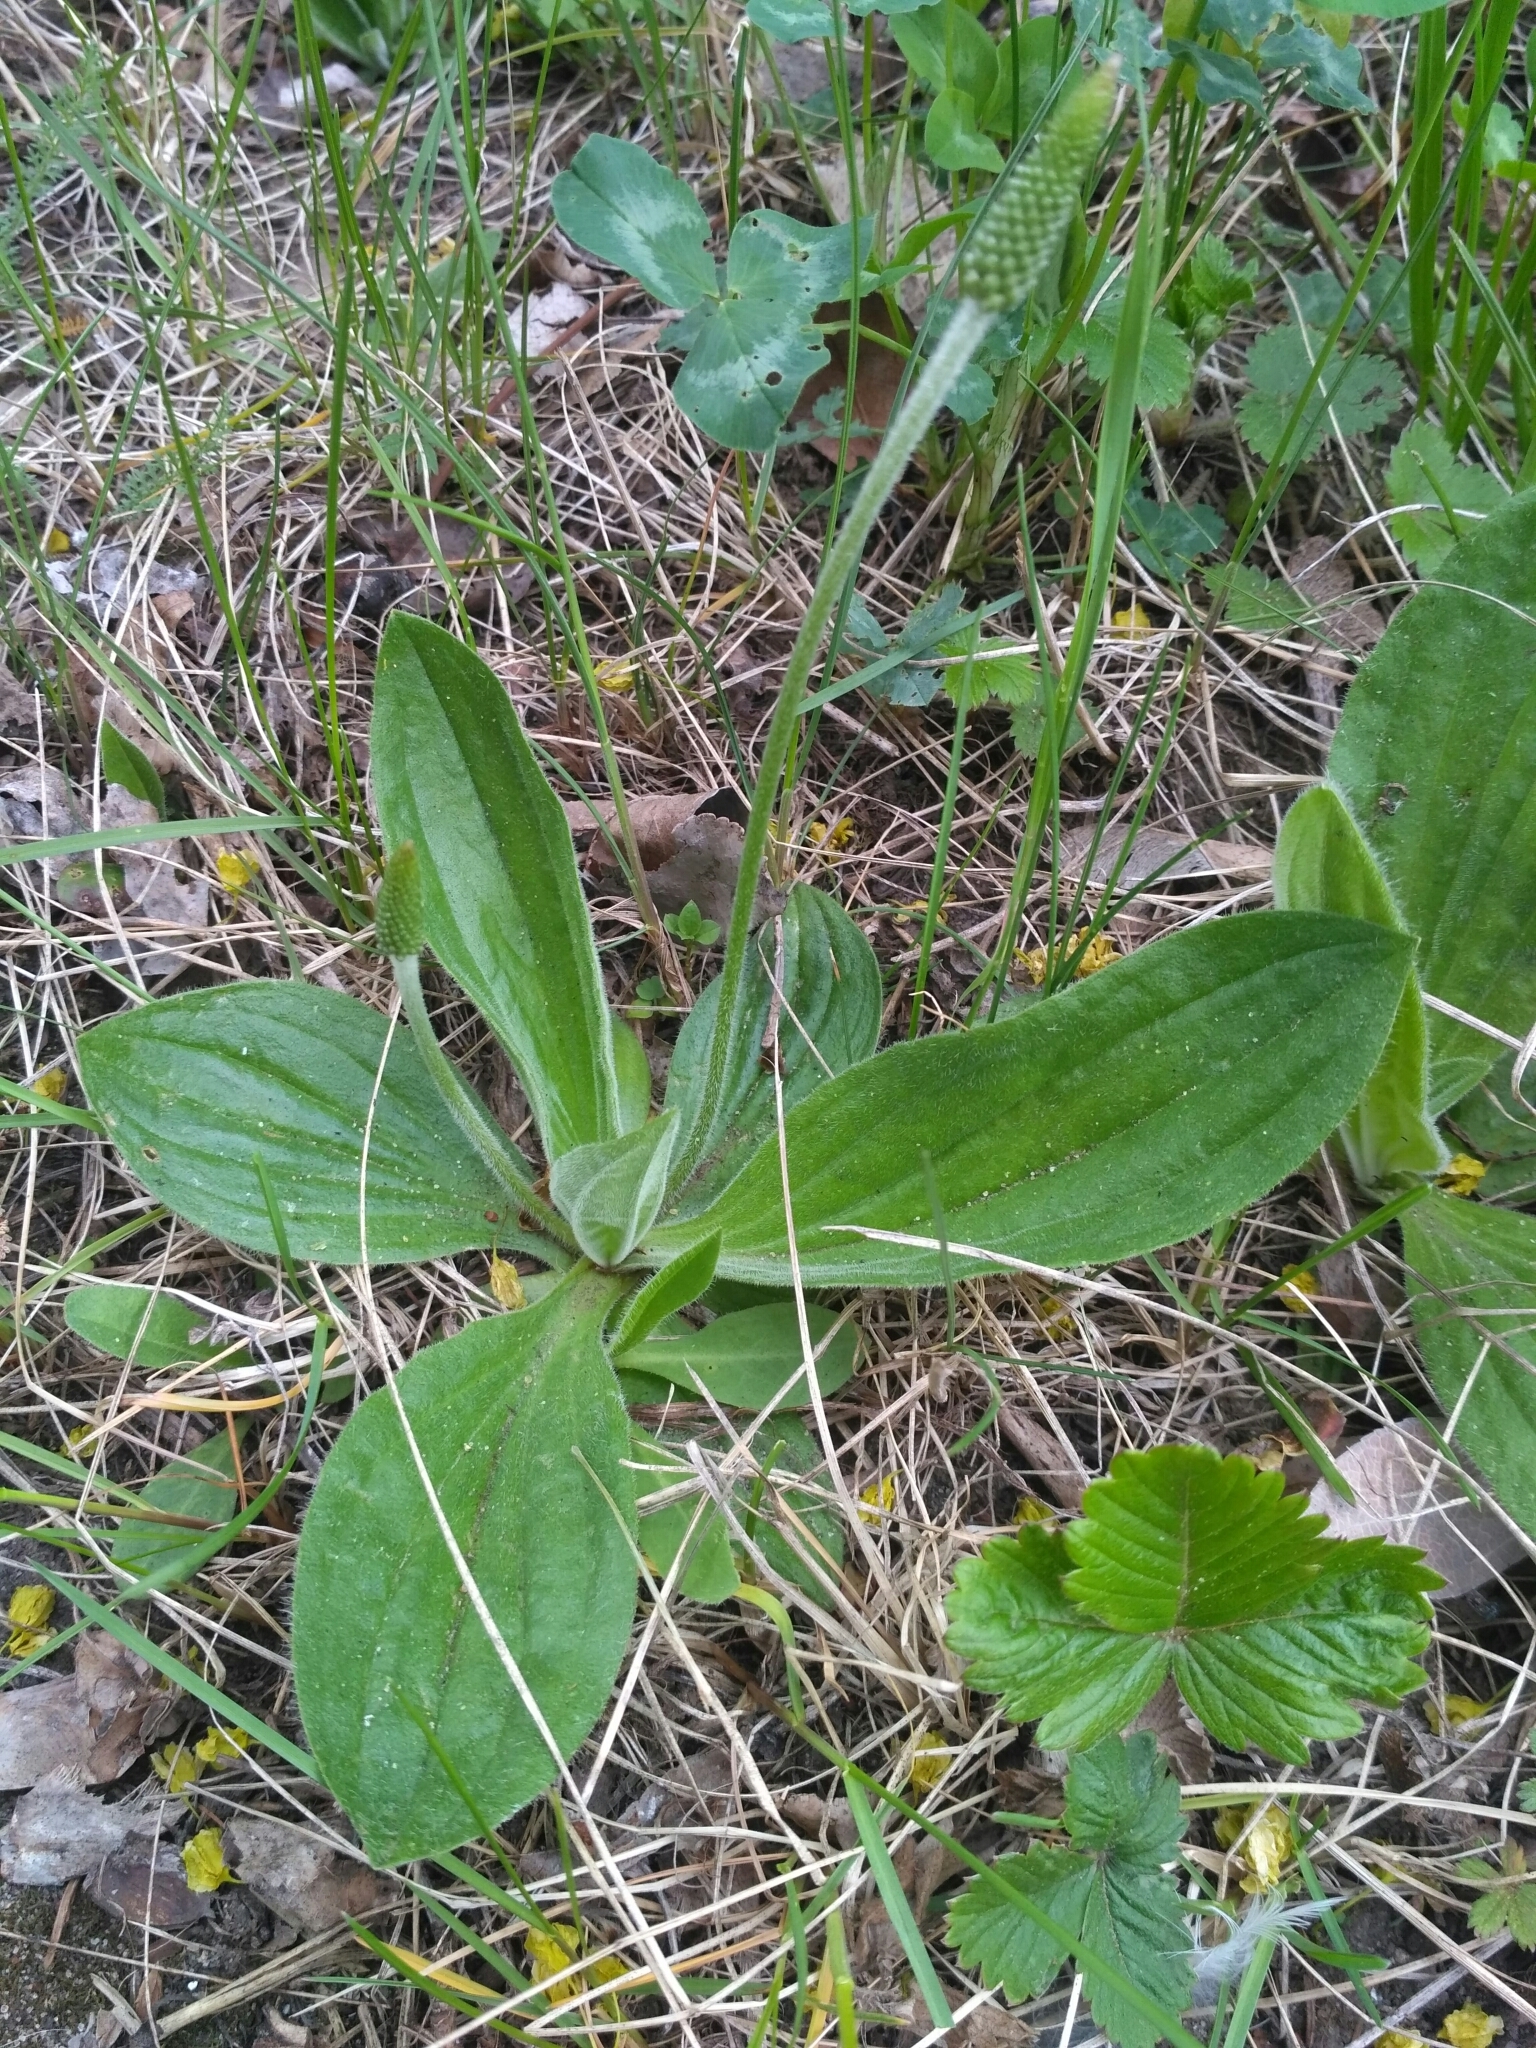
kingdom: Plantae
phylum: Tracheophyta
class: Magnoliopsida
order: Lamiales
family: Plantaginaceae
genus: Plantago
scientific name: Plantago media
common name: Hoary plantain
